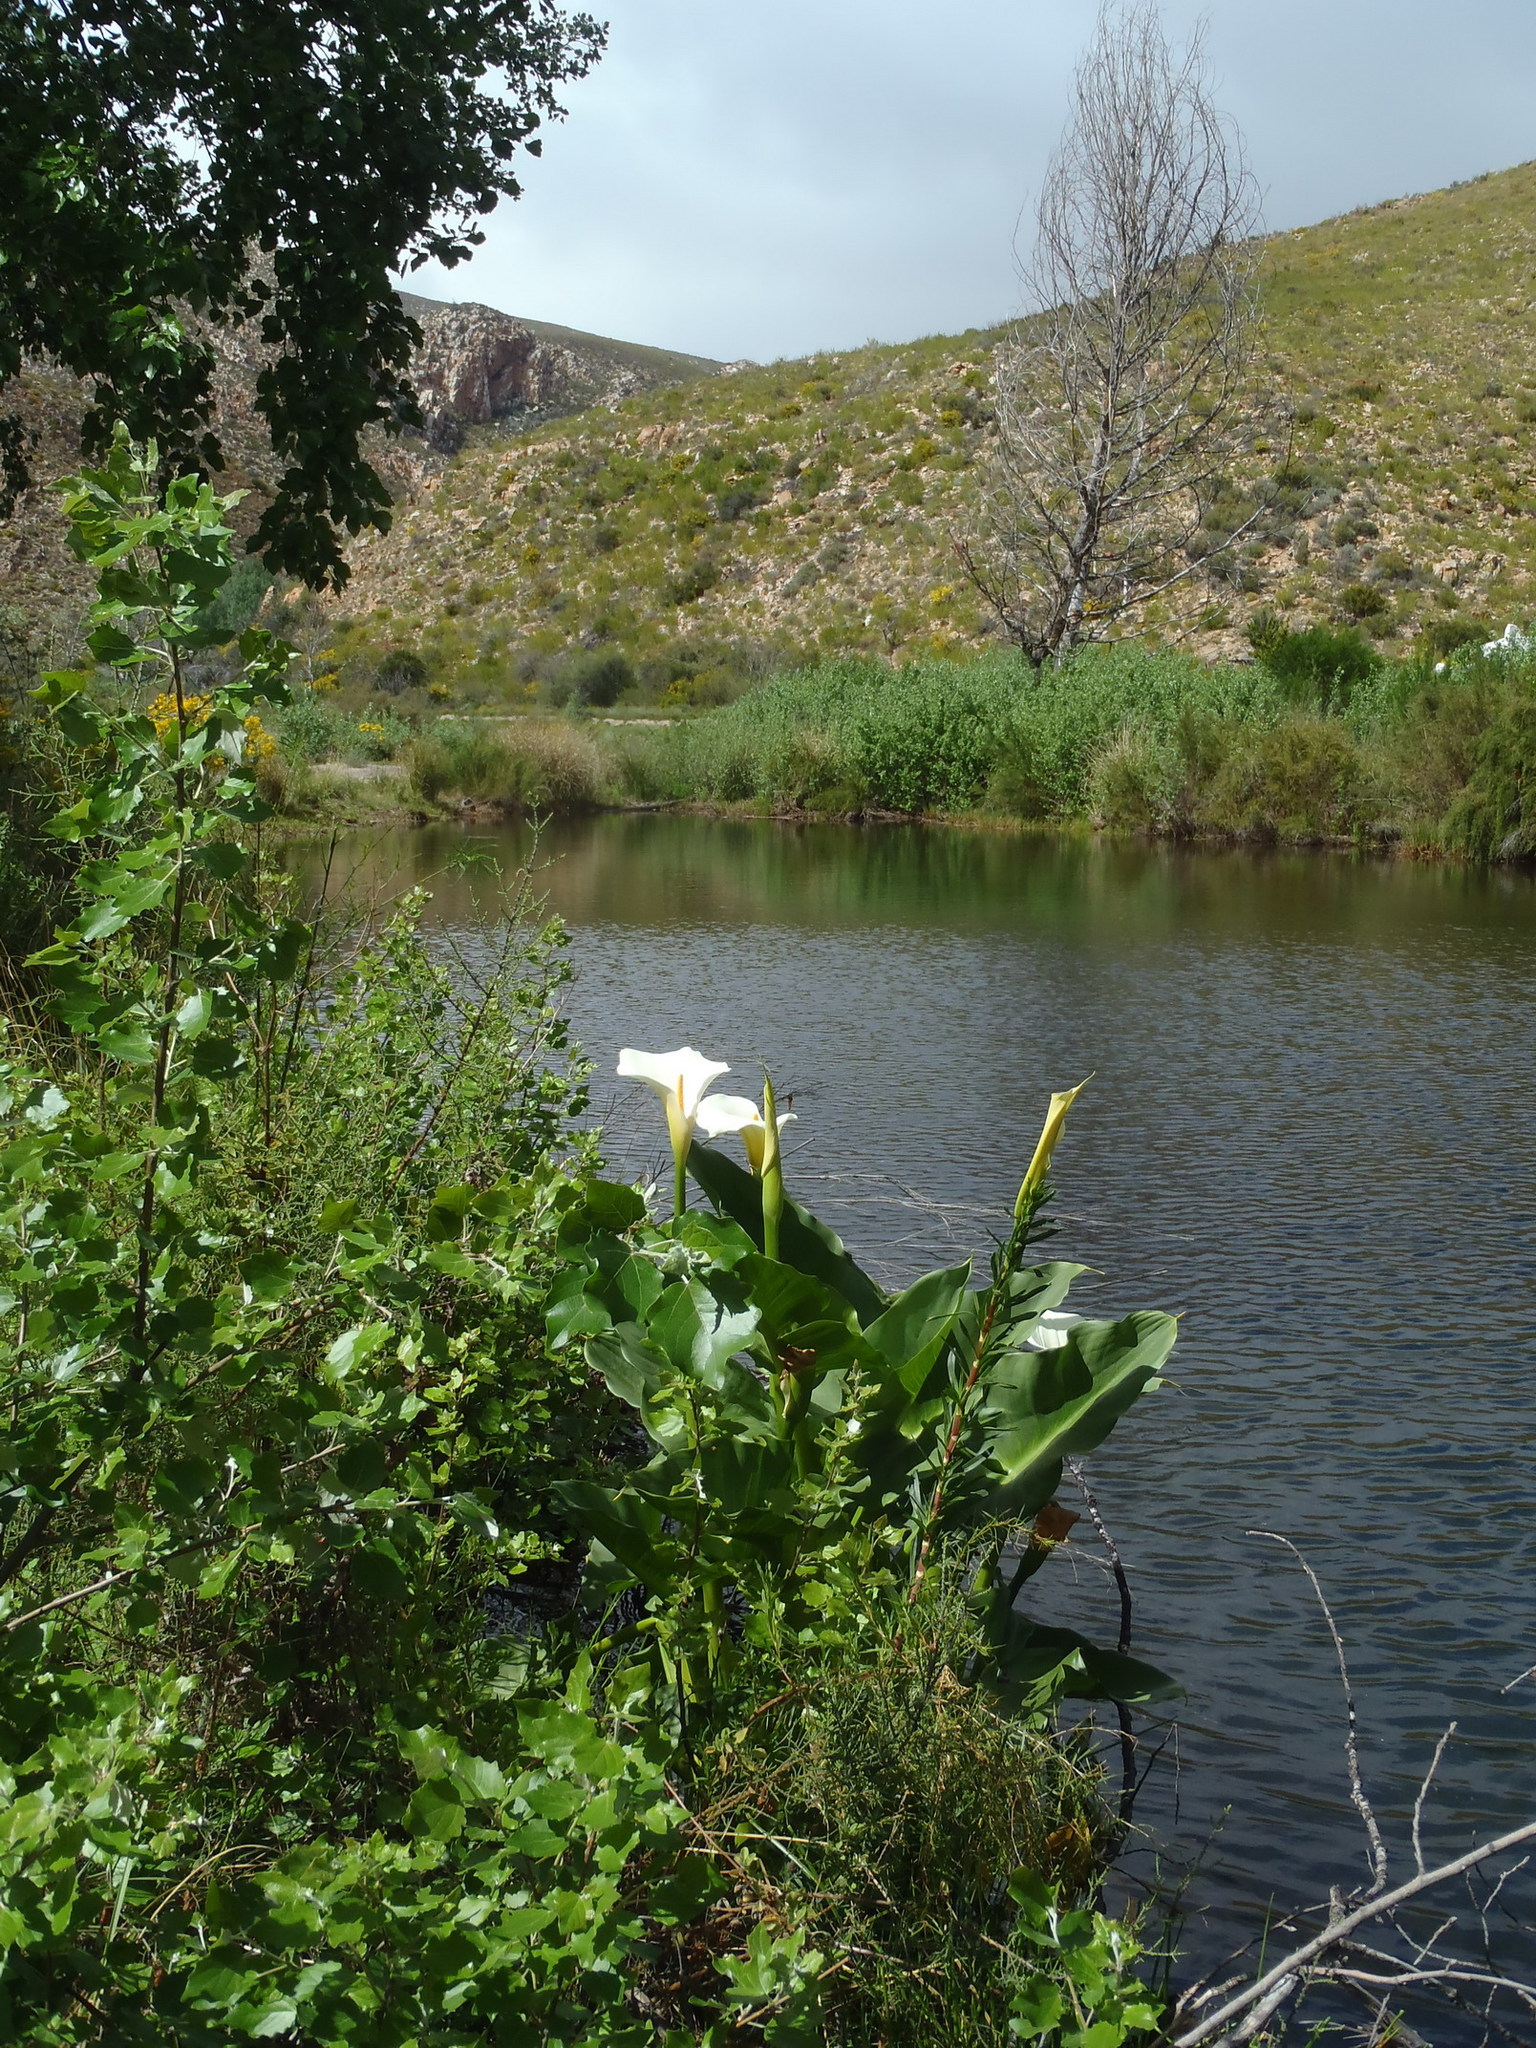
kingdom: Plantae
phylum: Tracheophyta
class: Liliopsida
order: Alismatales
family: Araceae
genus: Zantedeschia
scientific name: Zantedeschia aethiopica
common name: Altar-lily
